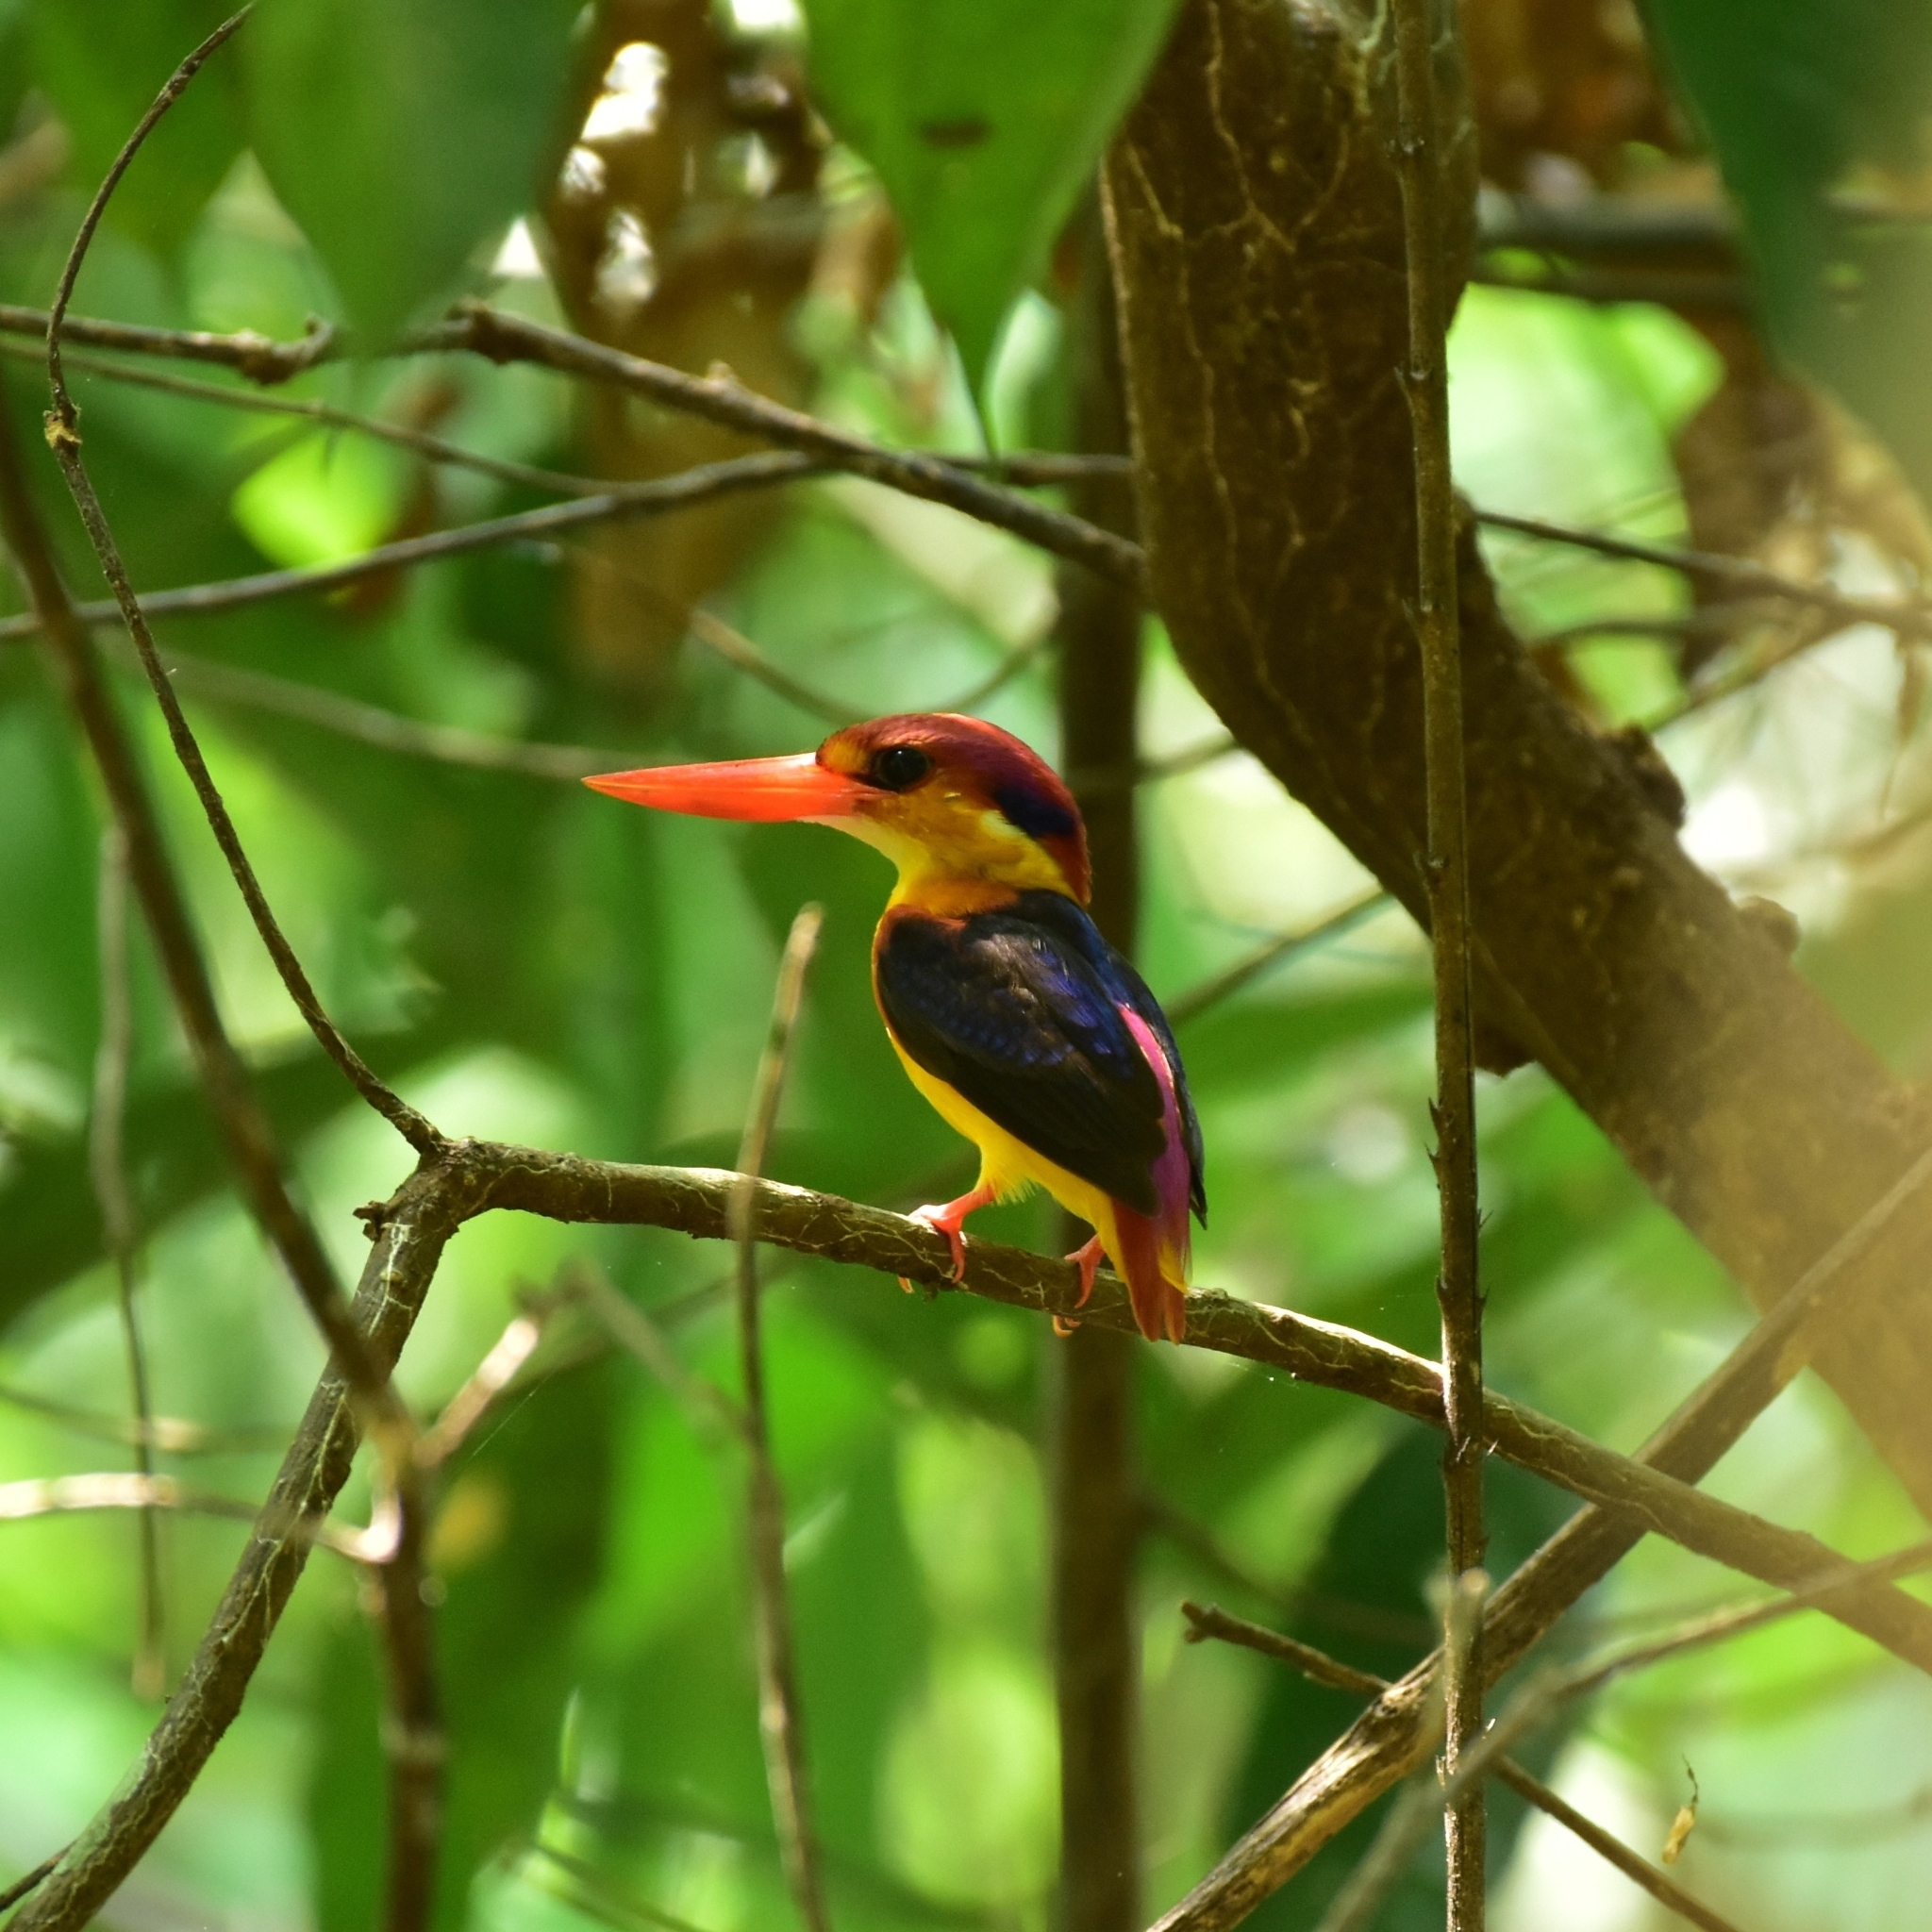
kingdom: Animalia
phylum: Chordata
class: Aves
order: Coraciiformes
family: Alcedinidae
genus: Ceyx
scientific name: Ceyx erithaca
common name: Oriental dwarf kingfisher
